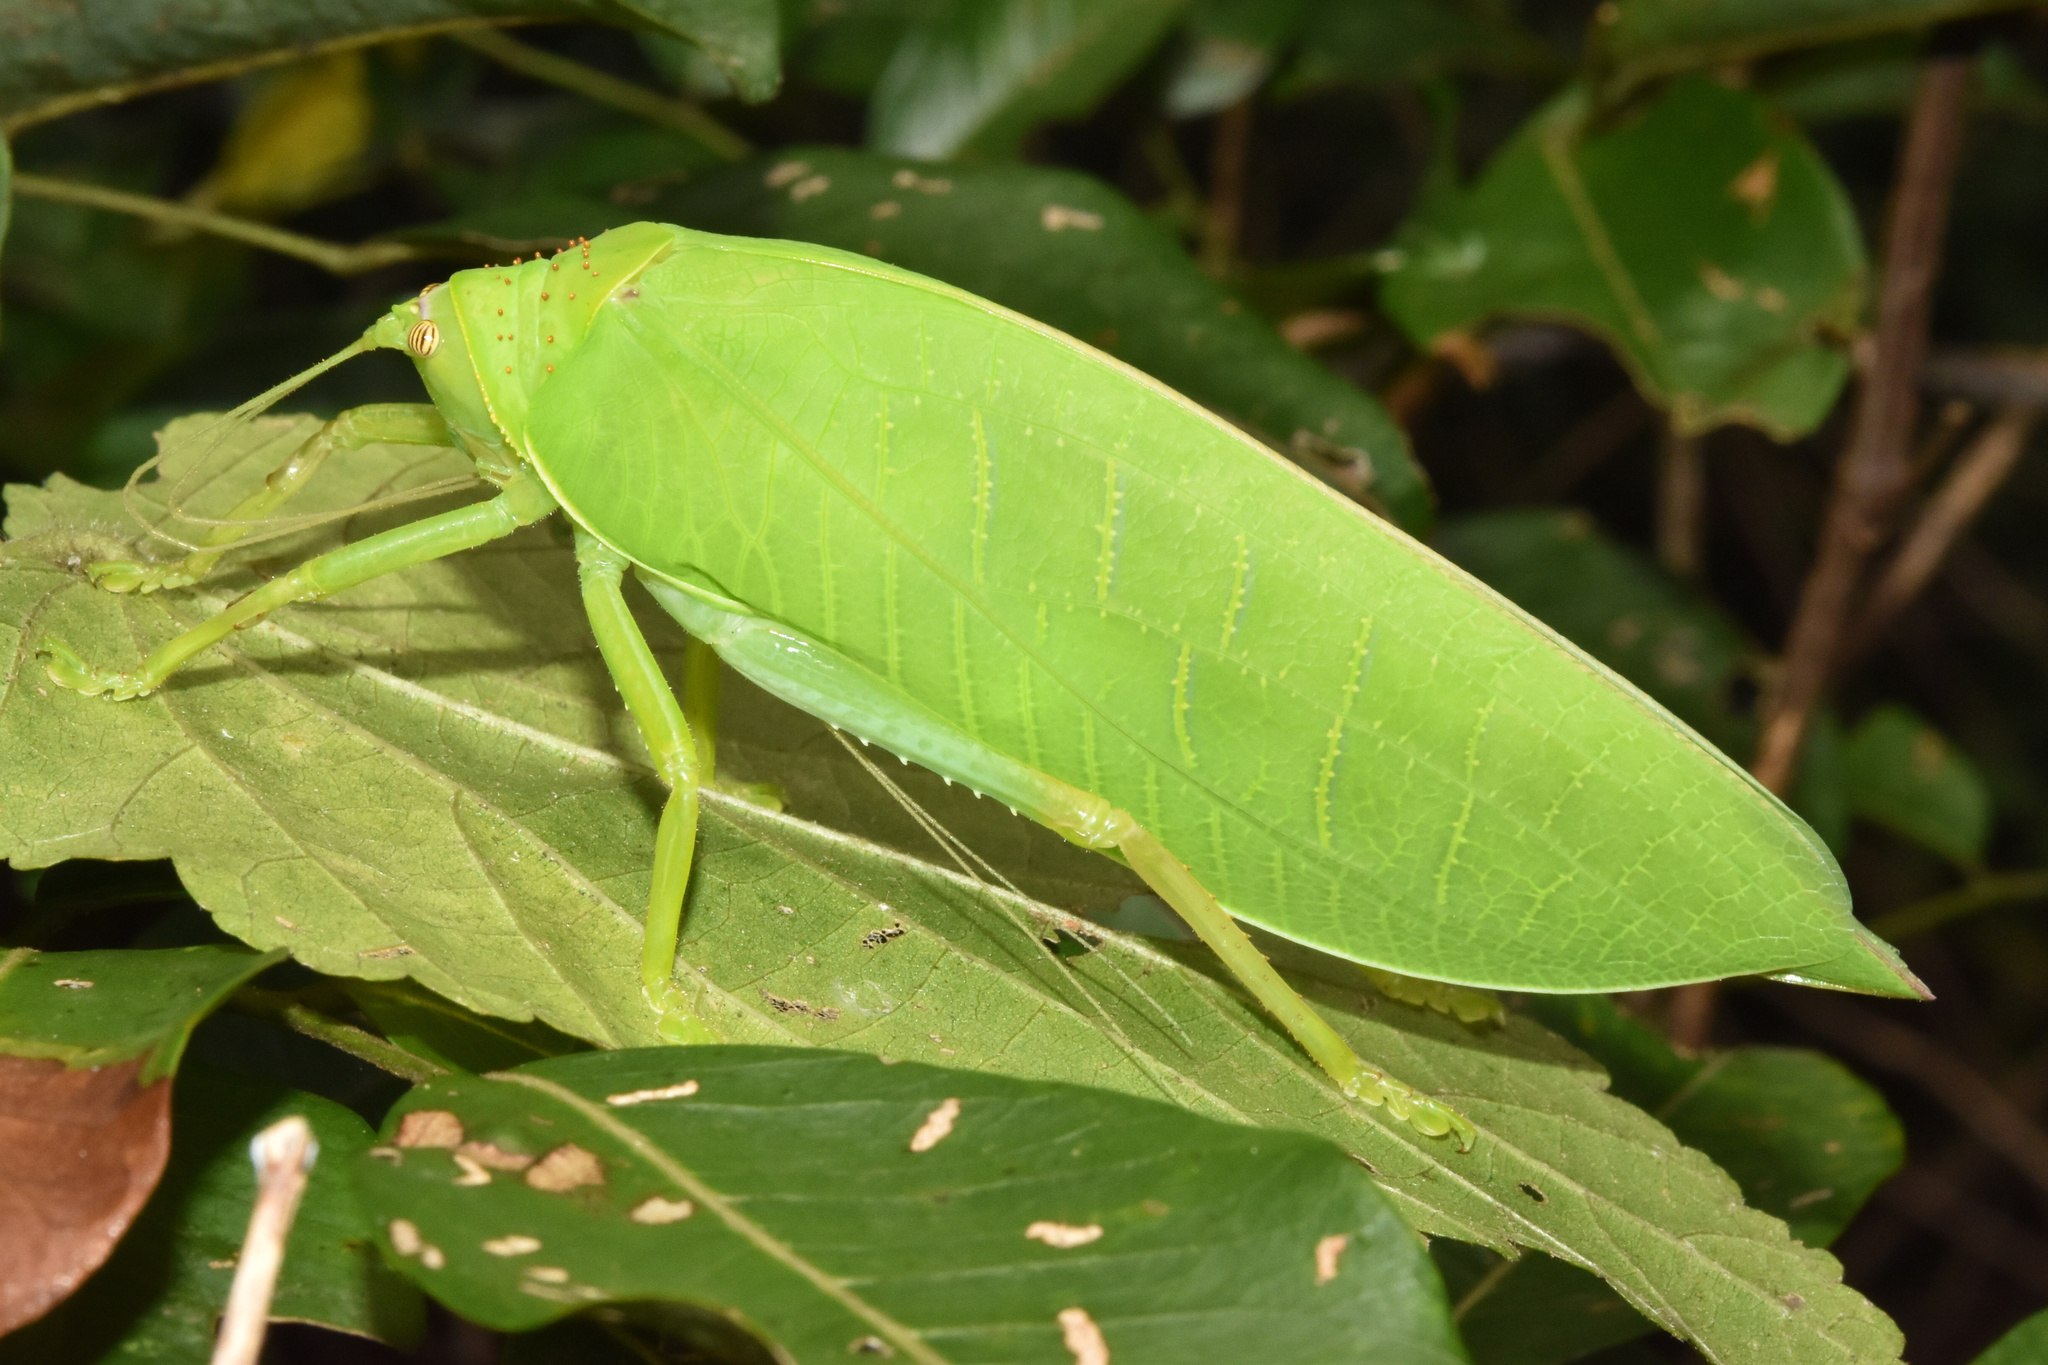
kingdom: Animalia
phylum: Arthropoda
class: Insecta
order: Orthoptera
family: Tettigoniidae
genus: Zabalius
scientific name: Zabalius ophthalmicus
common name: Blue-legged sylvan katydid
